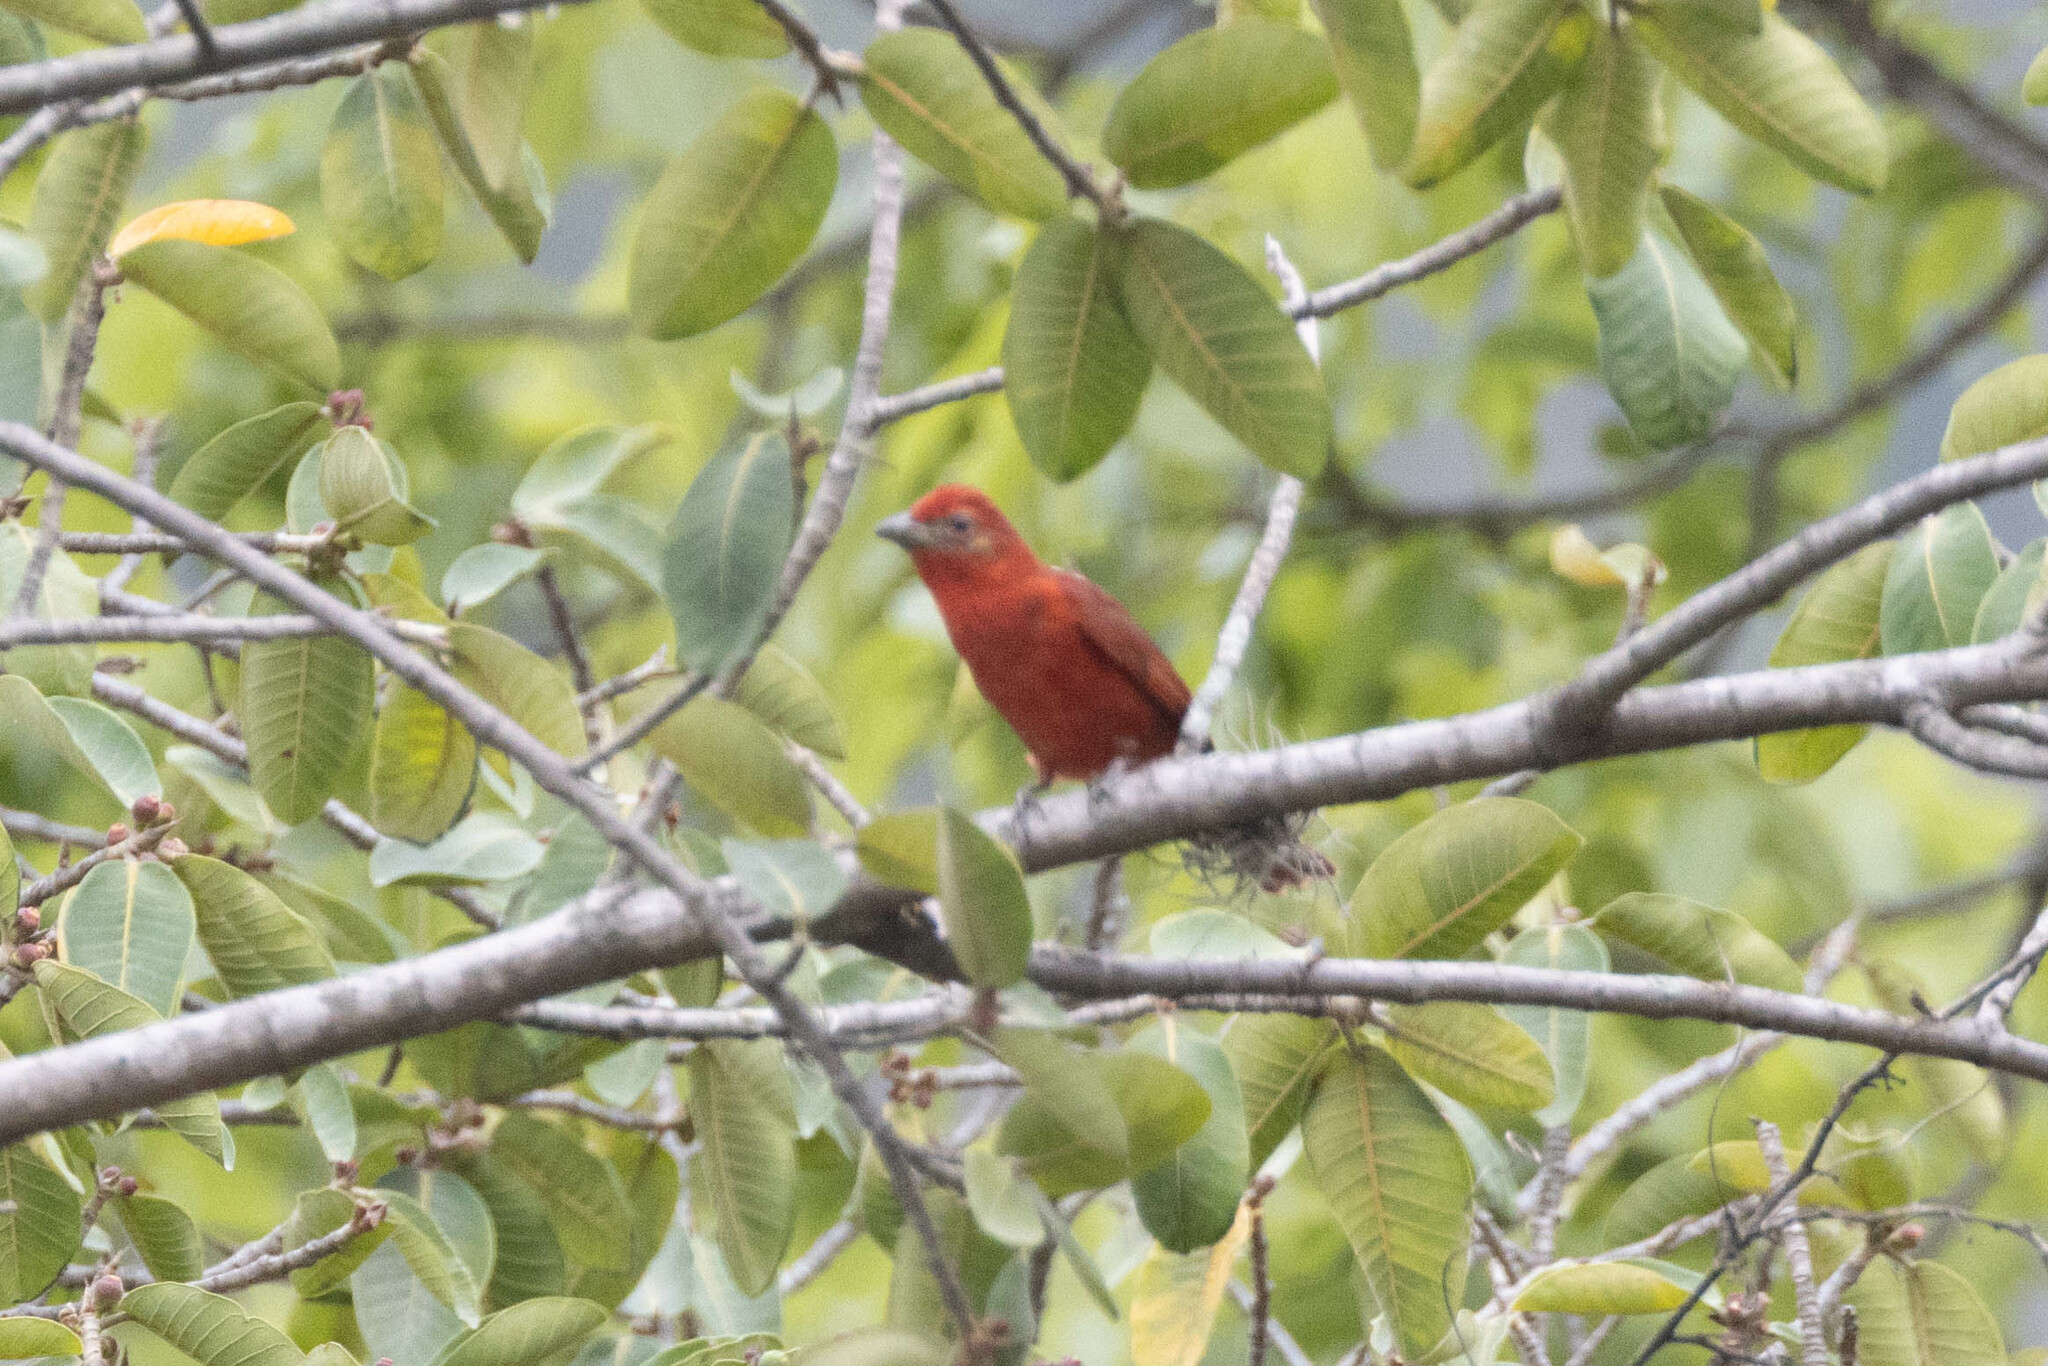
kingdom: Animalia
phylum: Chordata
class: Aves
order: Passeriformes
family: Cardinalidae
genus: Piranga
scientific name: Piranga flava
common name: Red tanager
